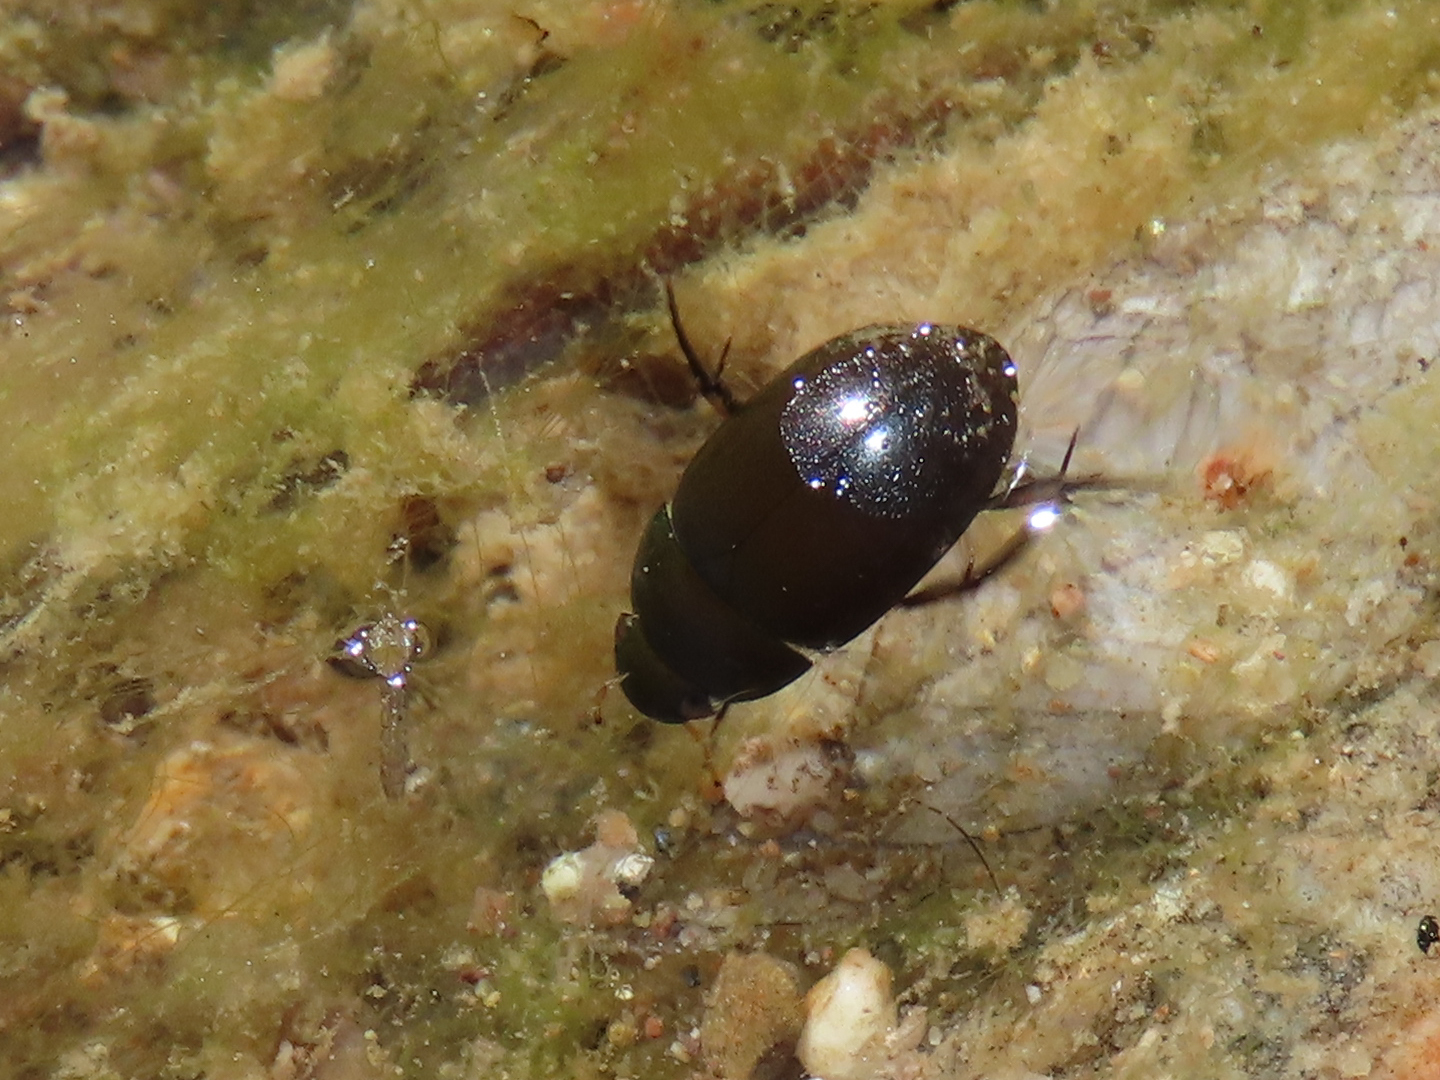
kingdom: Animalia
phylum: Arthropoda
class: Insecta
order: Coleoptera
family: Hydrophilidae
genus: Tropisternus
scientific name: Tropisternus
